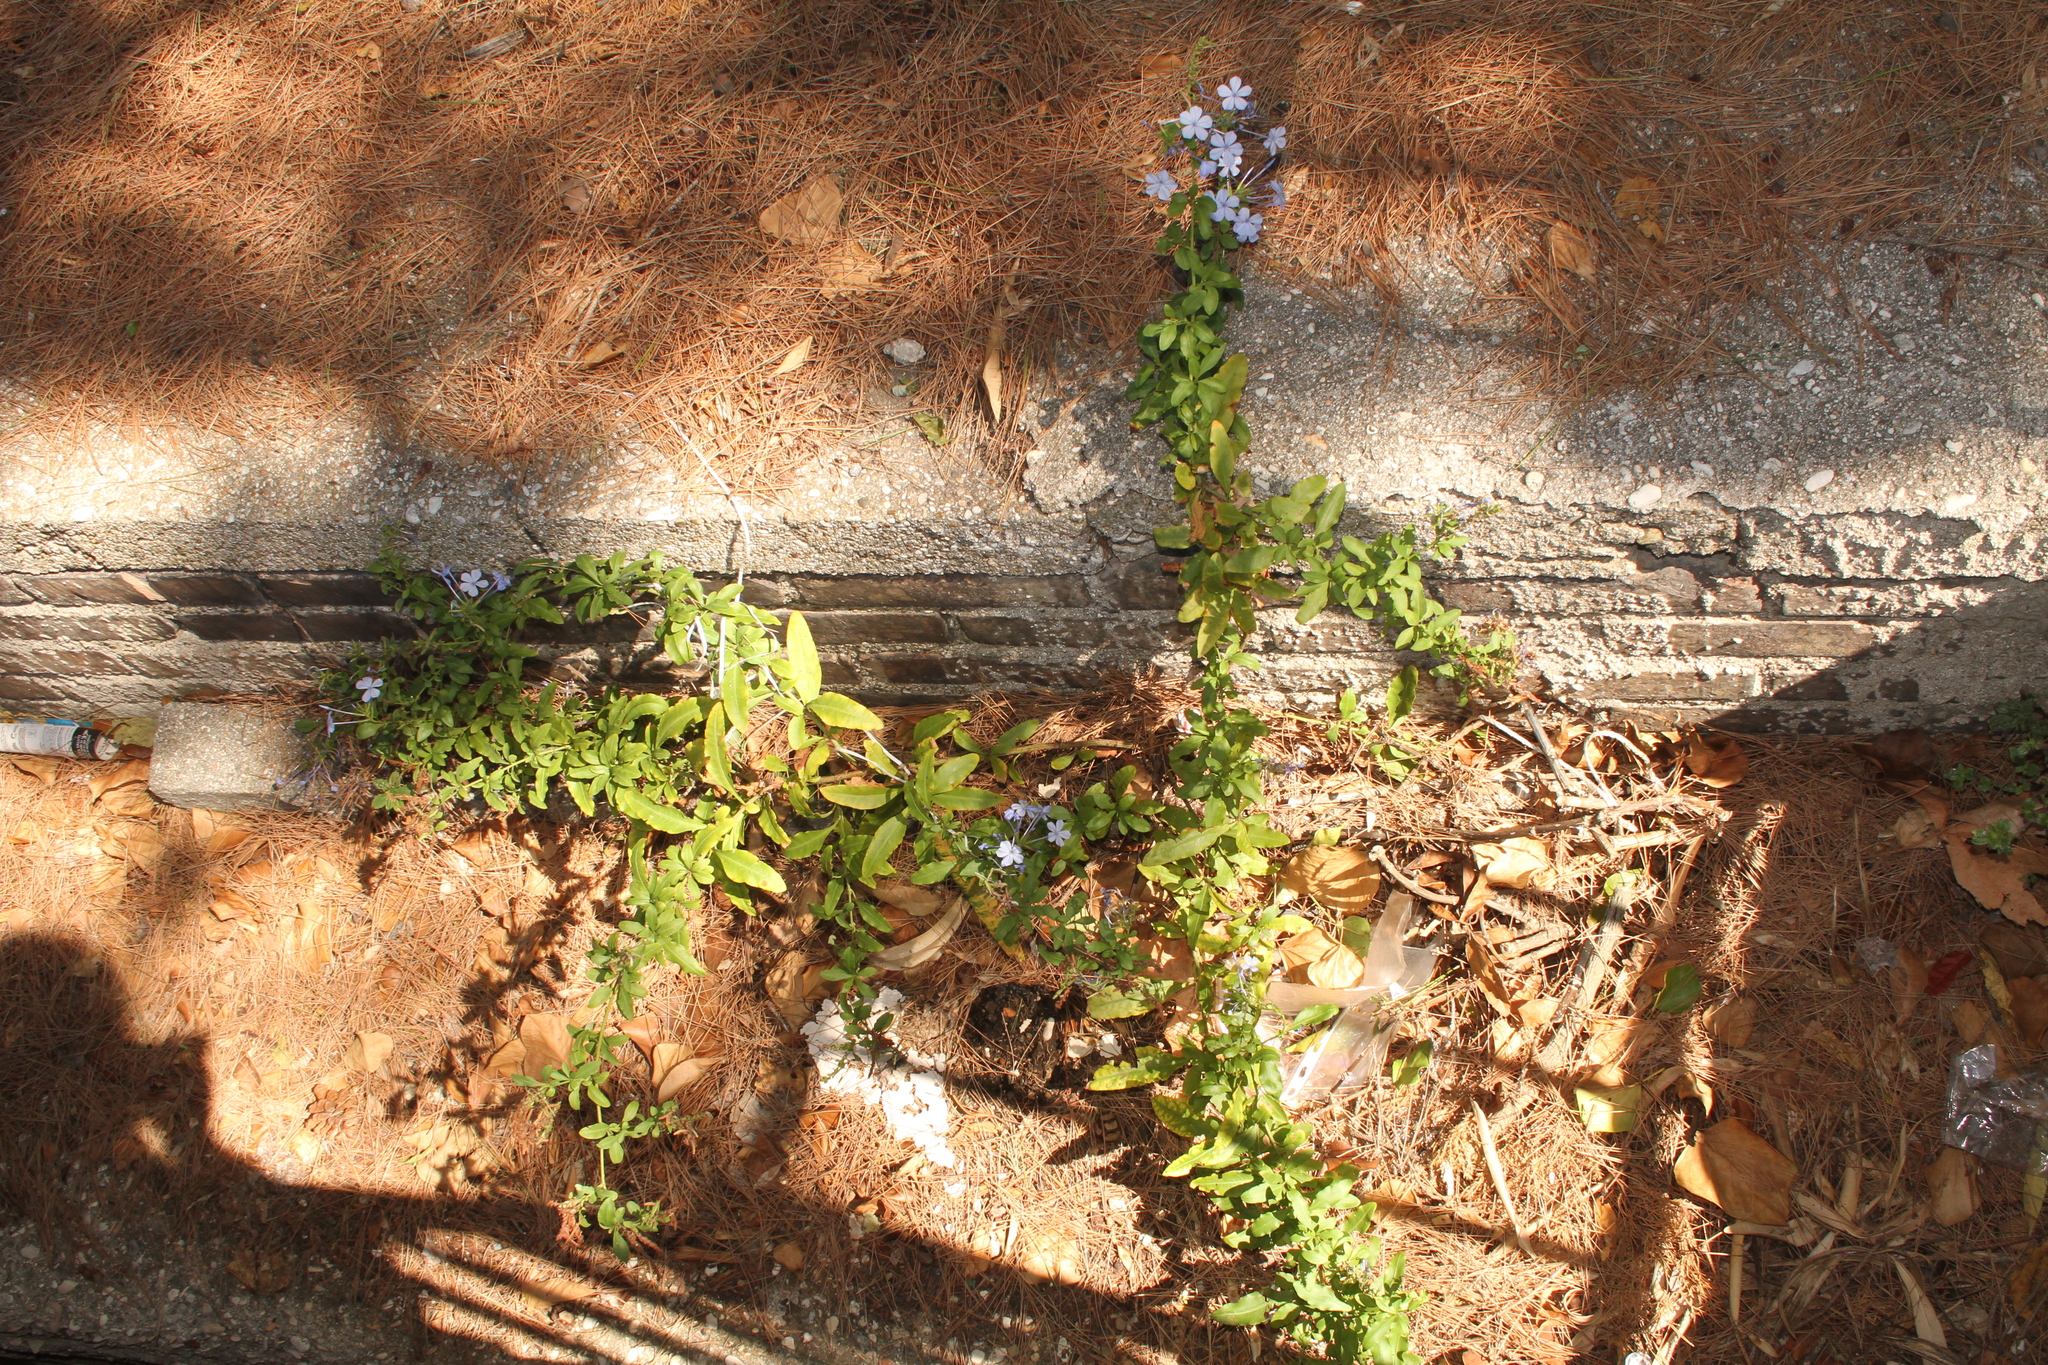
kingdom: Plantae
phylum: Tracheophyta
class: Magnoliopsida
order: Caryophyllales
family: Plumbaginaceae
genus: Plumbago
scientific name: Plumbago auriculata
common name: Cape leadwort
